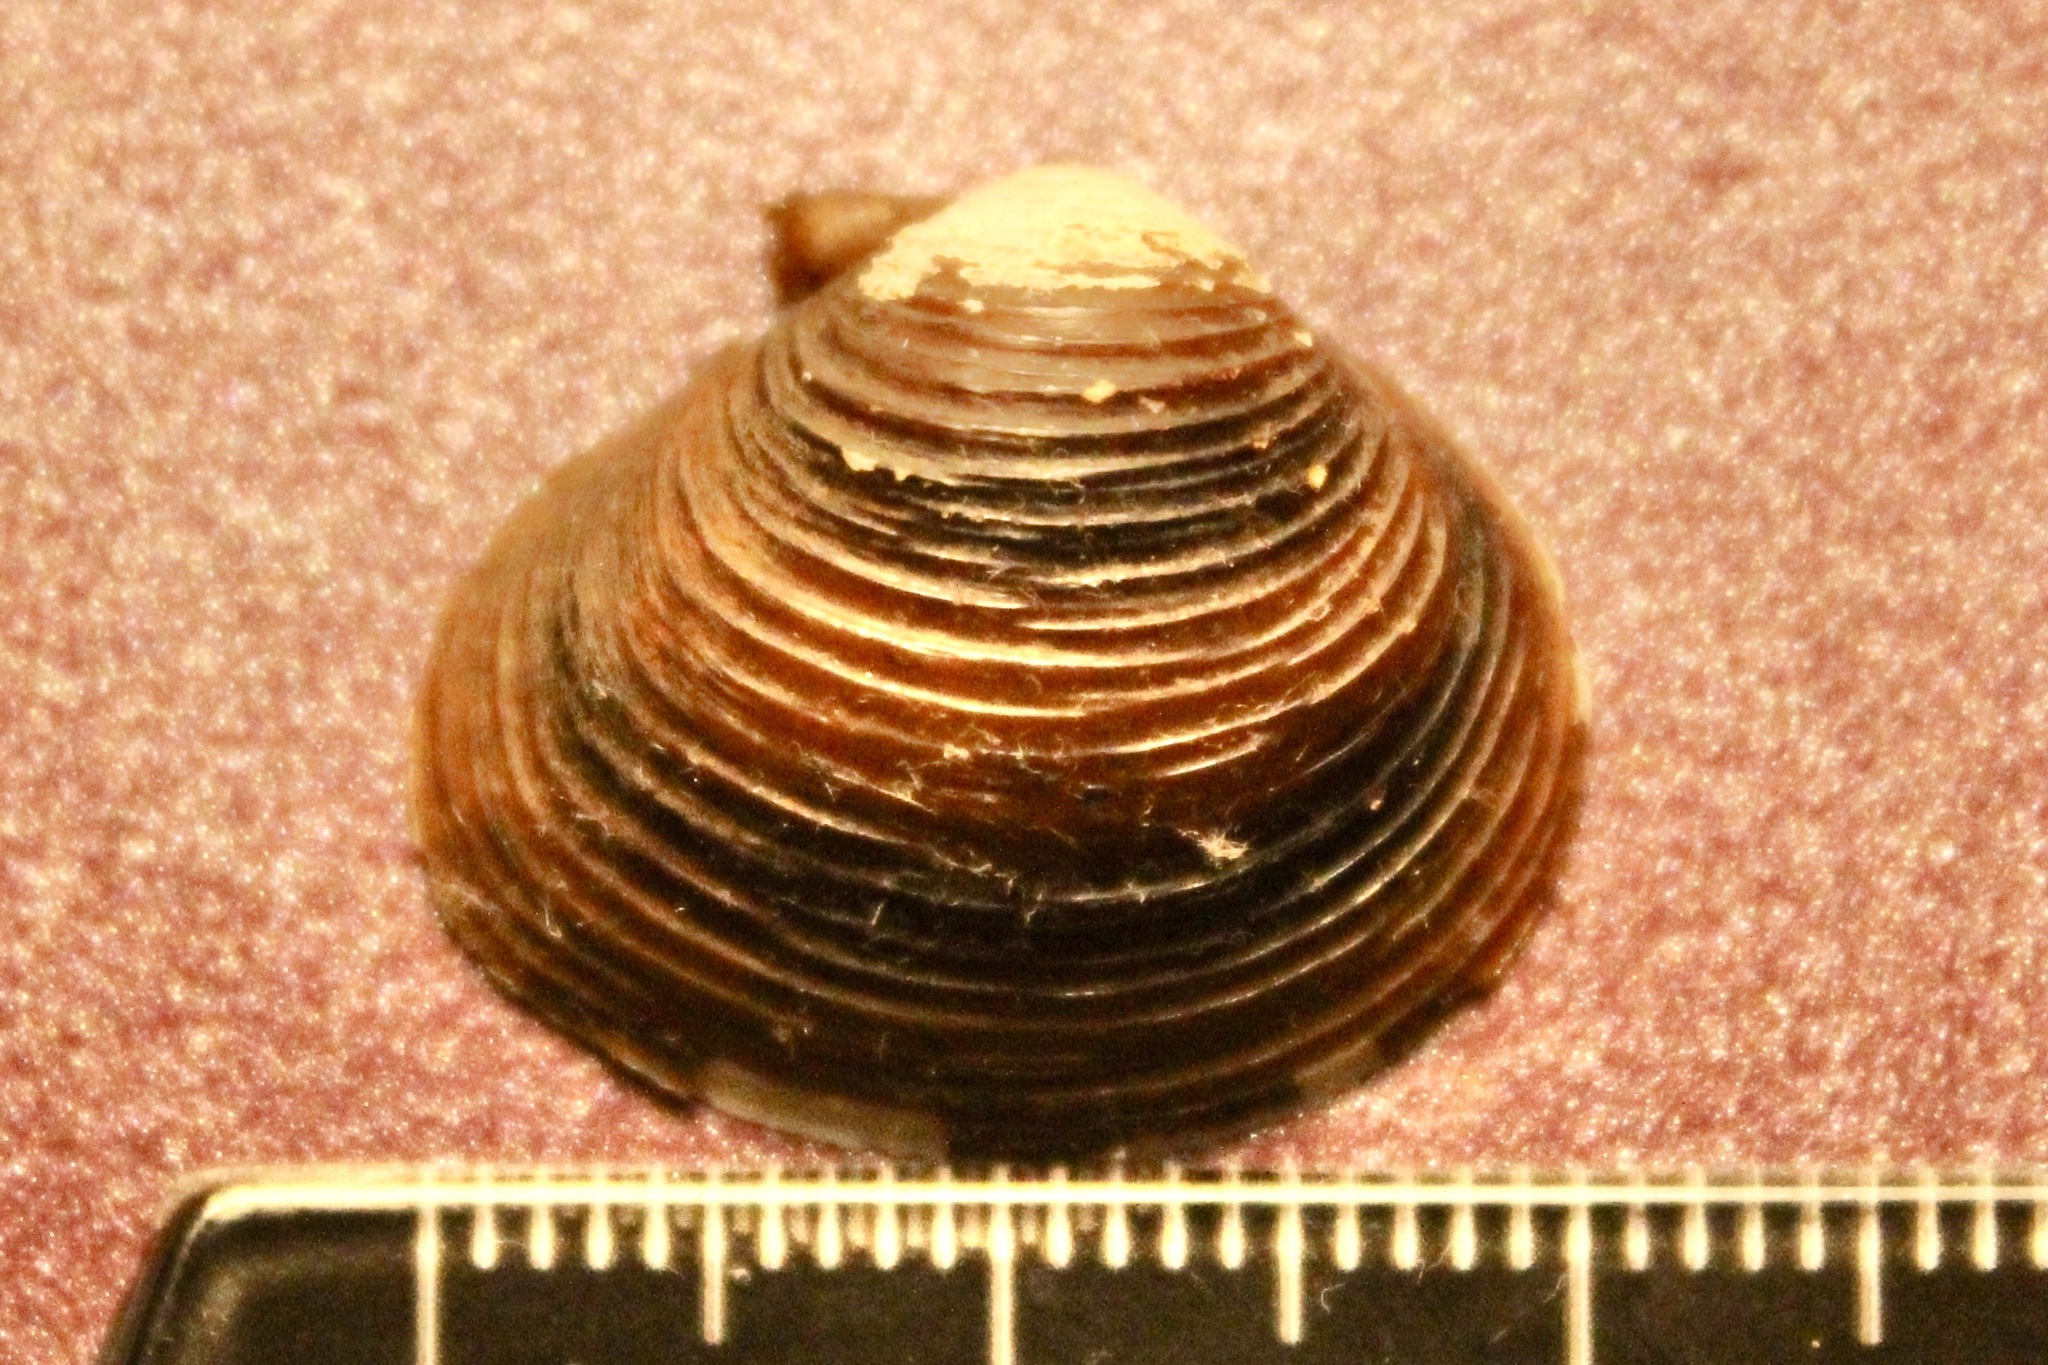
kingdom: Animalia
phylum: Mollusca
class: Bivalvia
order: Venerida
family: Cyrenidae
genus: Corbicula
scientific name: Corbicula fluminea
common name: Asian clam
